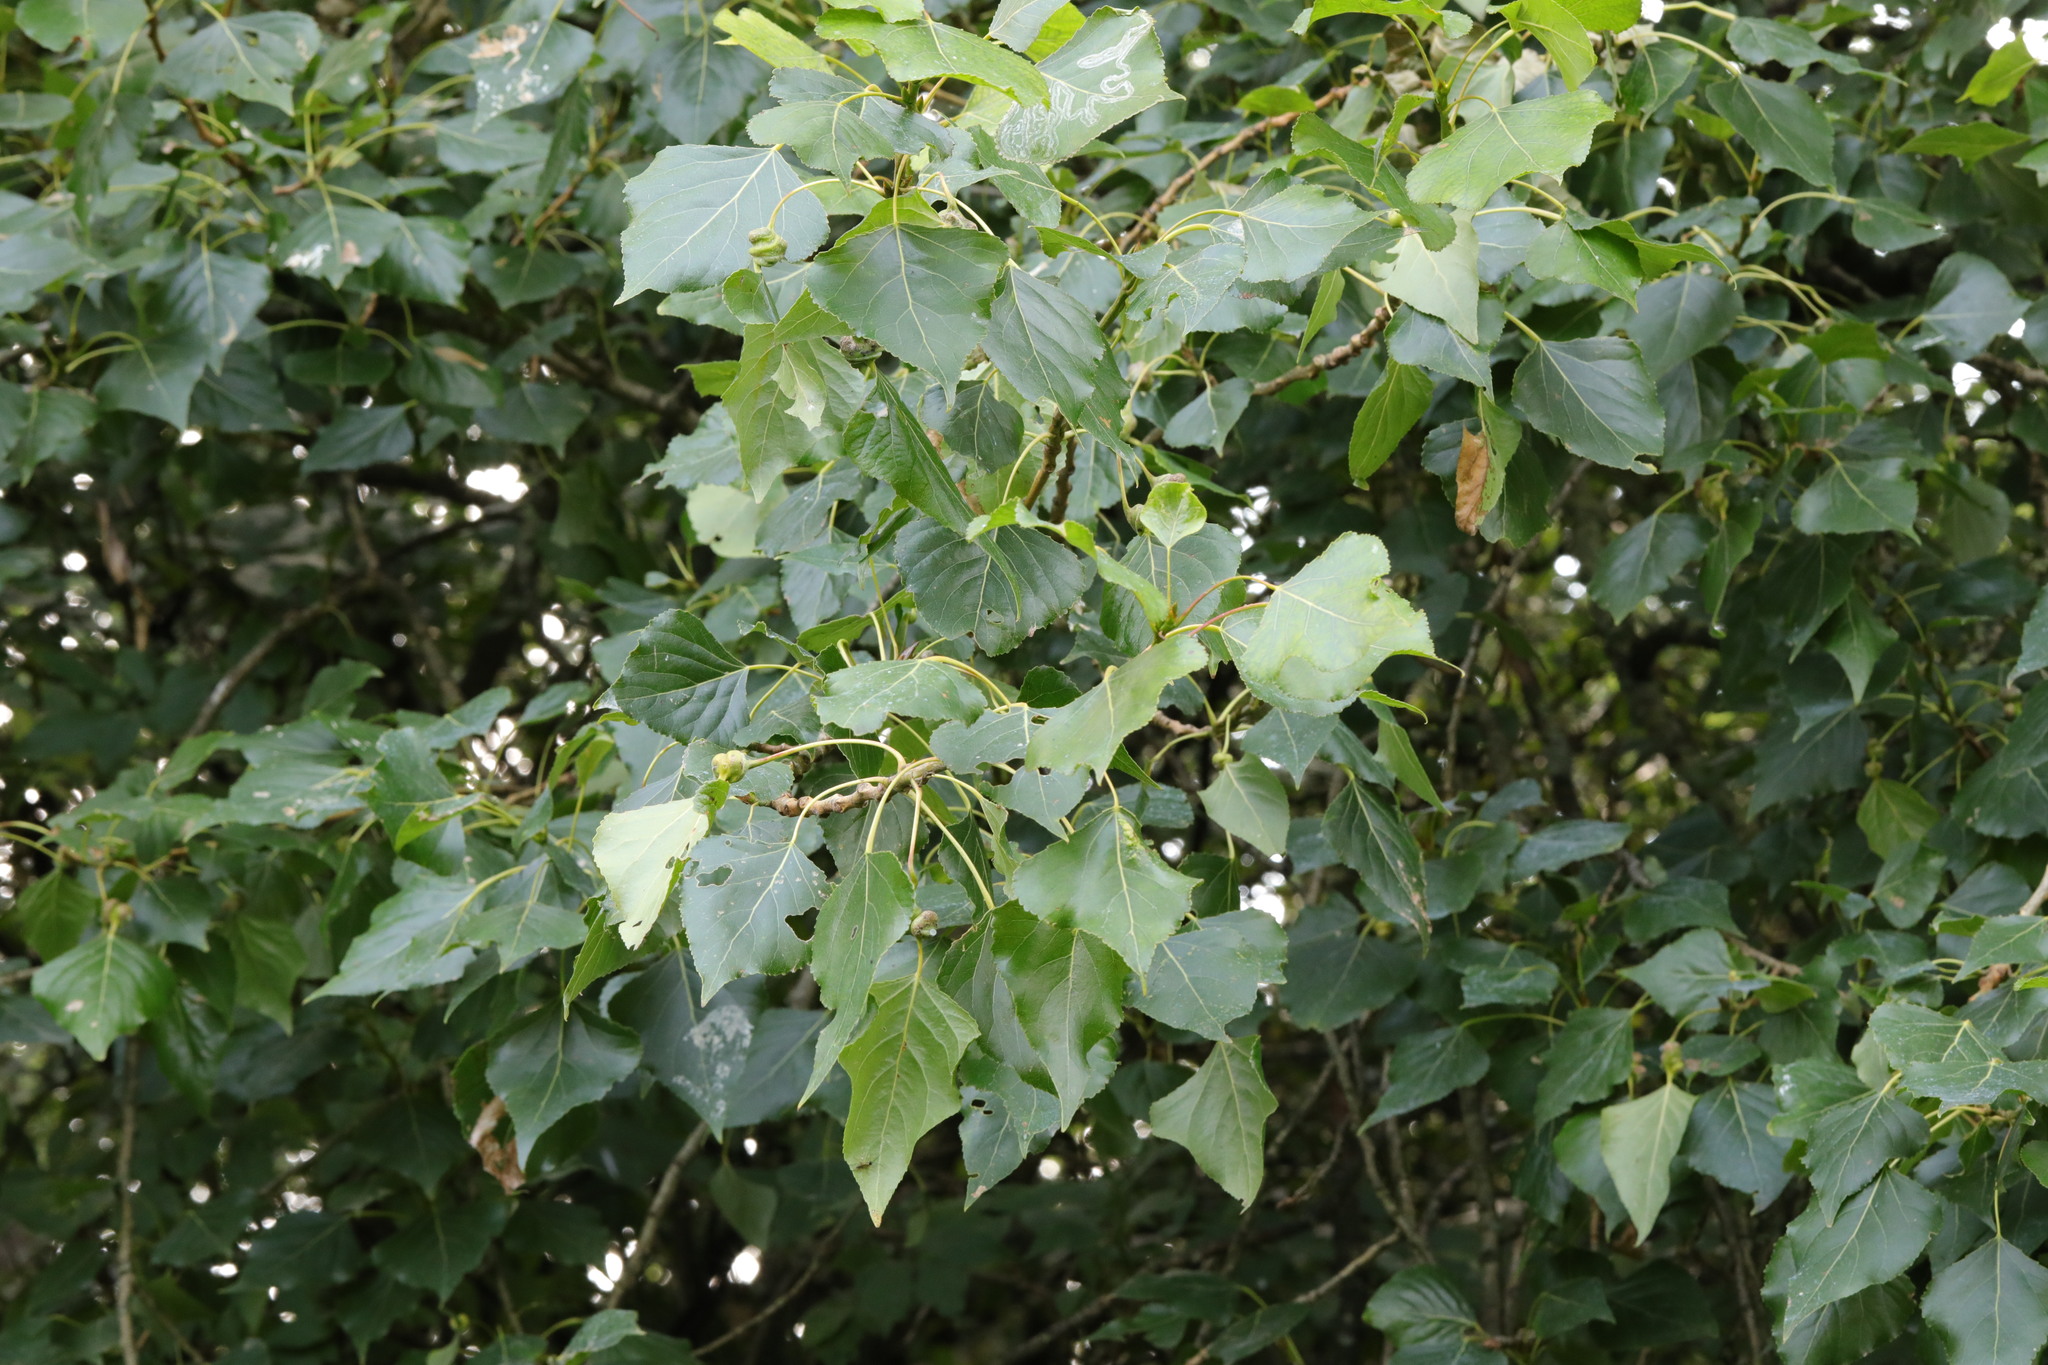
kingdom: Plantae
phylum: Tracheophyta
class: Magnoliopsida
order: Malpighiales
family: Salicaceae
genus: Populus
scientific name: Populus canadensis
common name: Carolina poplar
